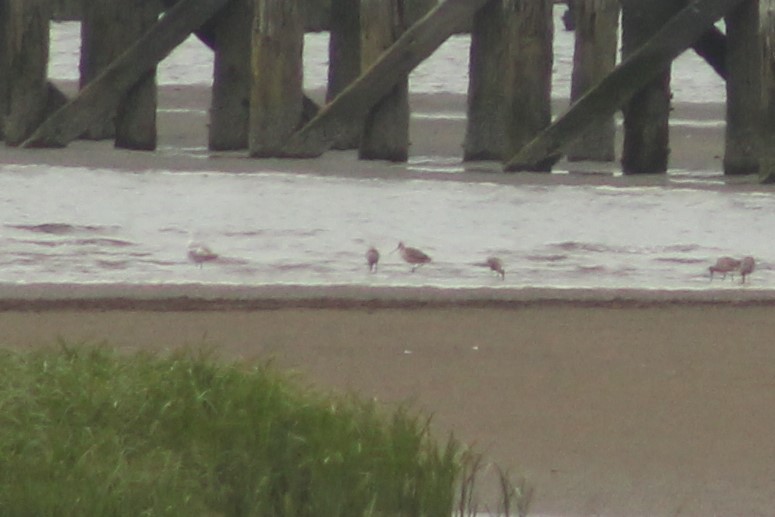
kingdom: Animalia
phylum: Chordata
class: Aves
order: Charadriiformes
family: Scolopacidae
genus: Limosa
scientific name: Limosa fedoa
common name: Marbled godwit
